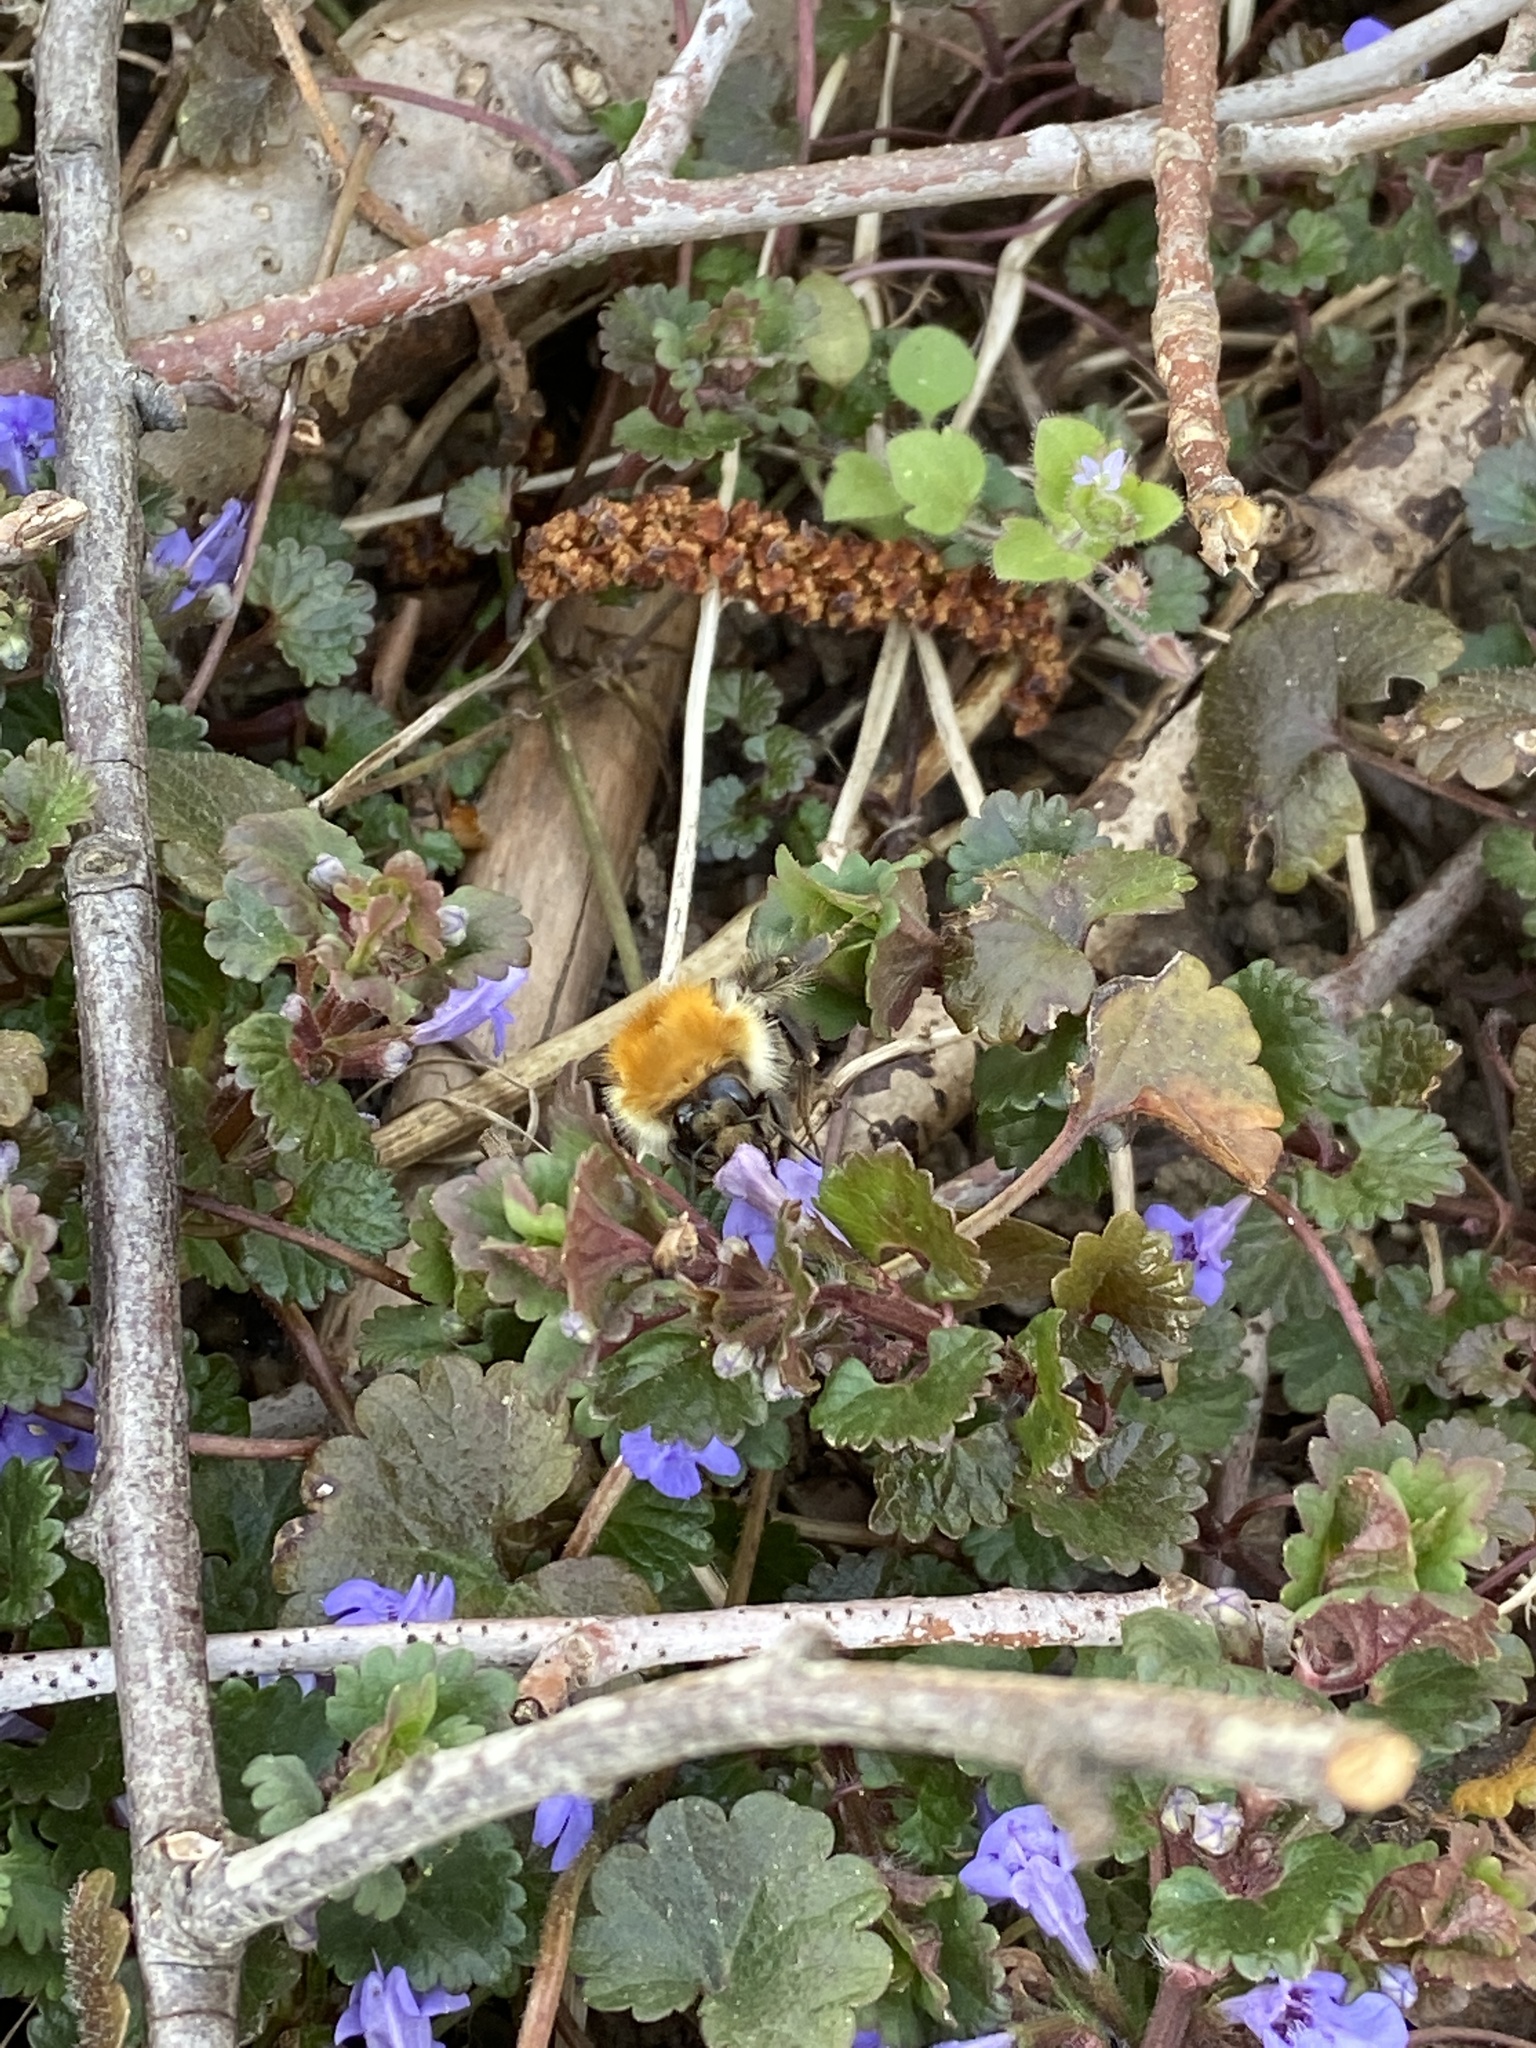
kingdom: Animalia
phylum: Arthropoda
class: Insecta
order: Hymenoptera
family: Apidae
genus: Bombus
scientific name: Bombus pascuorum
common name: Common carder bee
